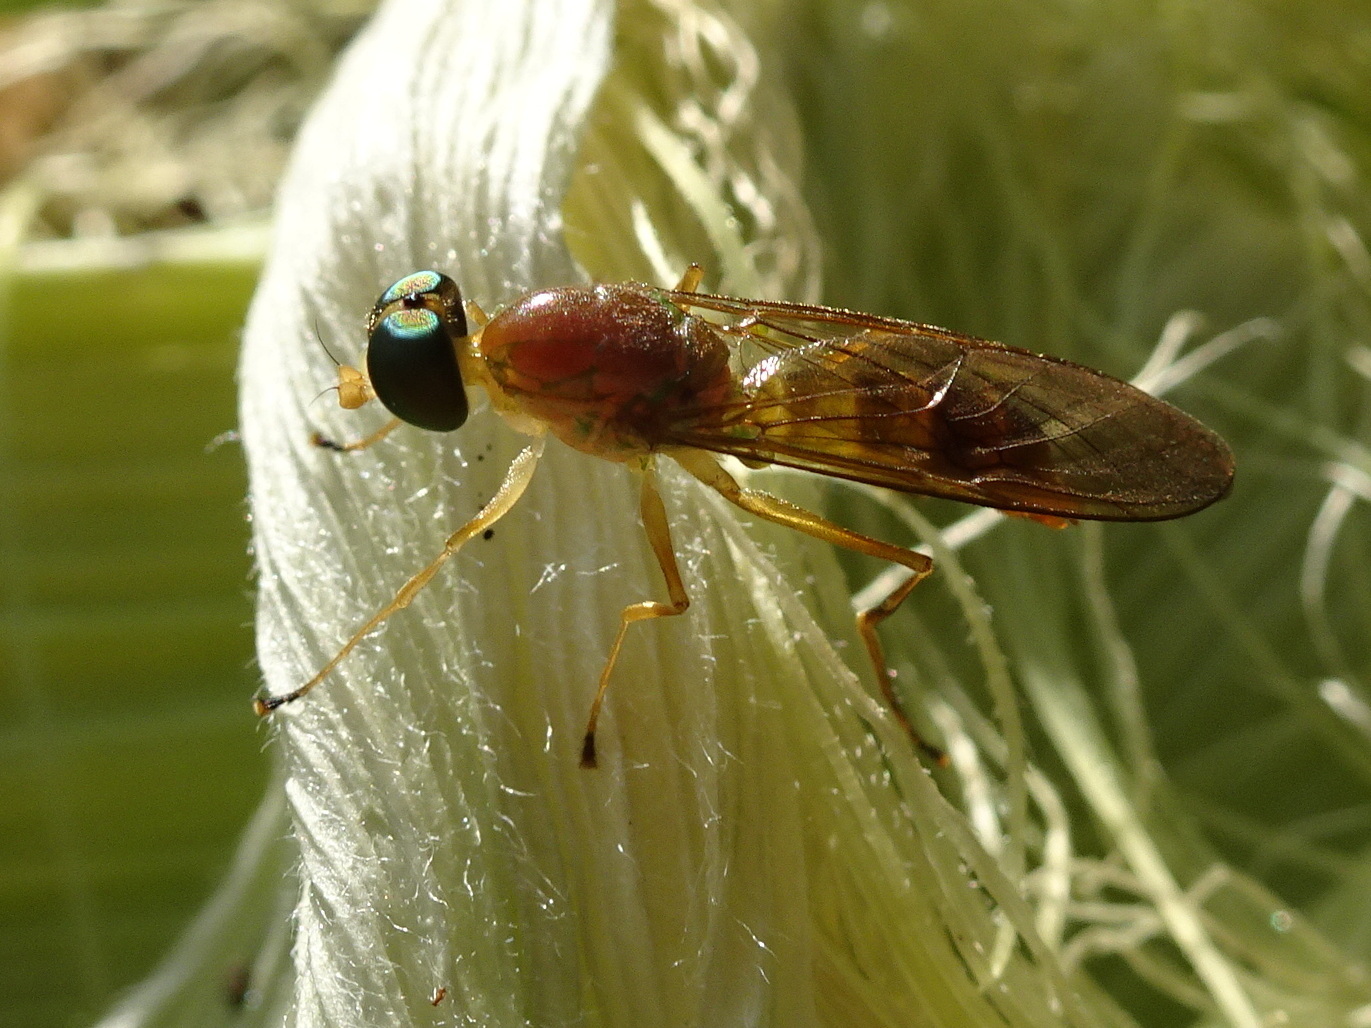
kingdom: Animalia
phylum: Arthropoda
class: Insecta
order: Diptera
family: Stratiomyidae
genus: Ptecticus
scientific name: Ptecticus trivittatus
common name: Compost fly
